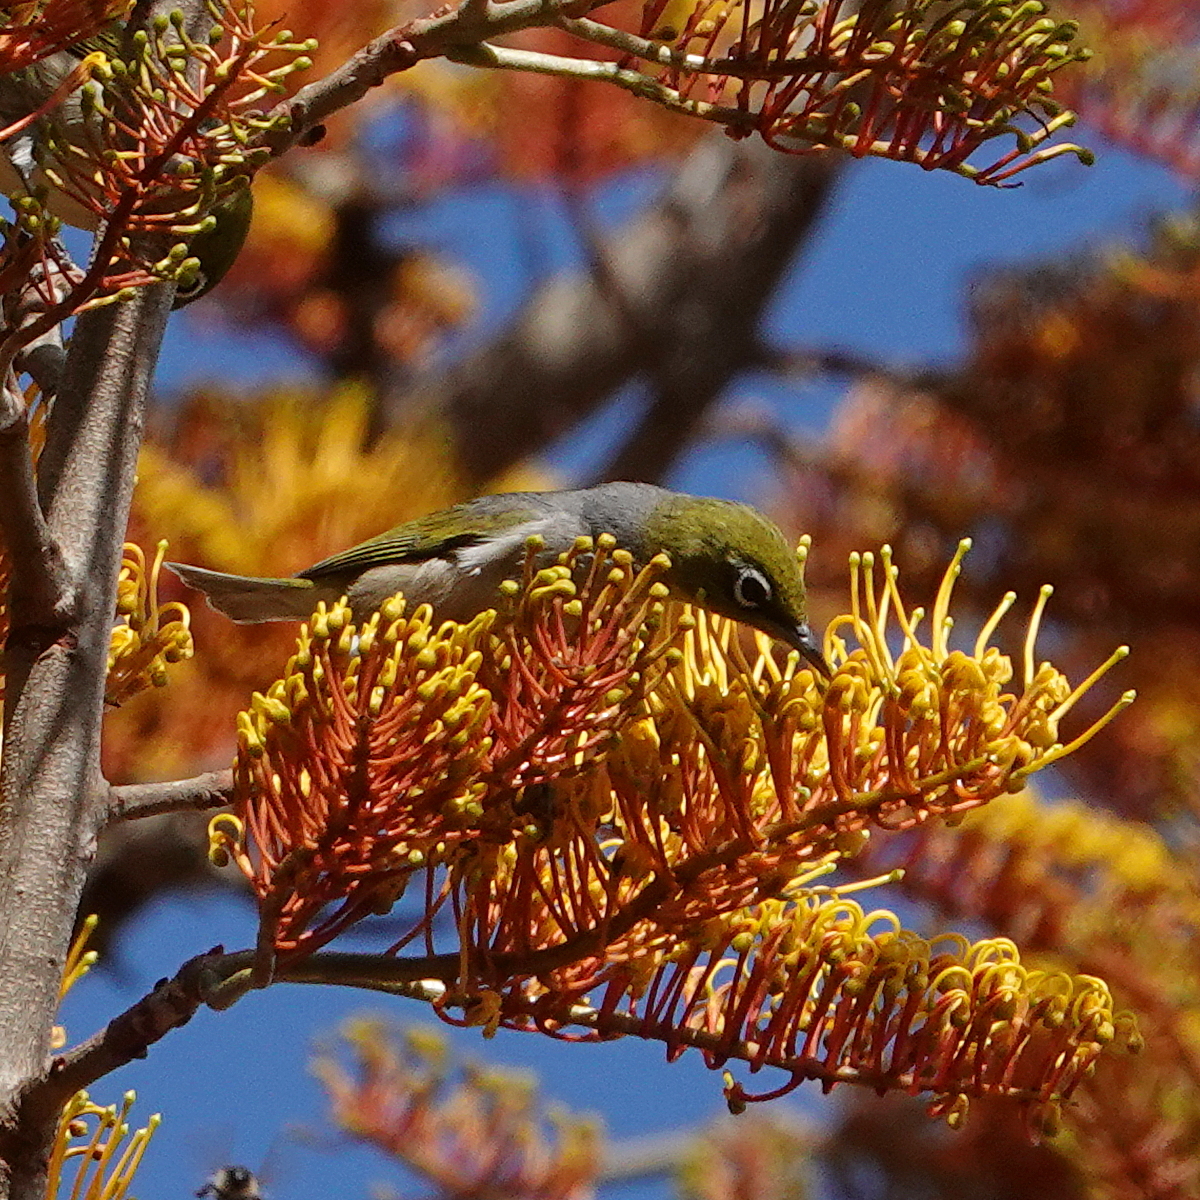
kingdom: Animalia
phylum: Chordata
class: Aves
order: Passeriformes
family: Zosteropidae
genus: Zosterops
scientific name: Zosterops lateralis
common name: Silvereye
